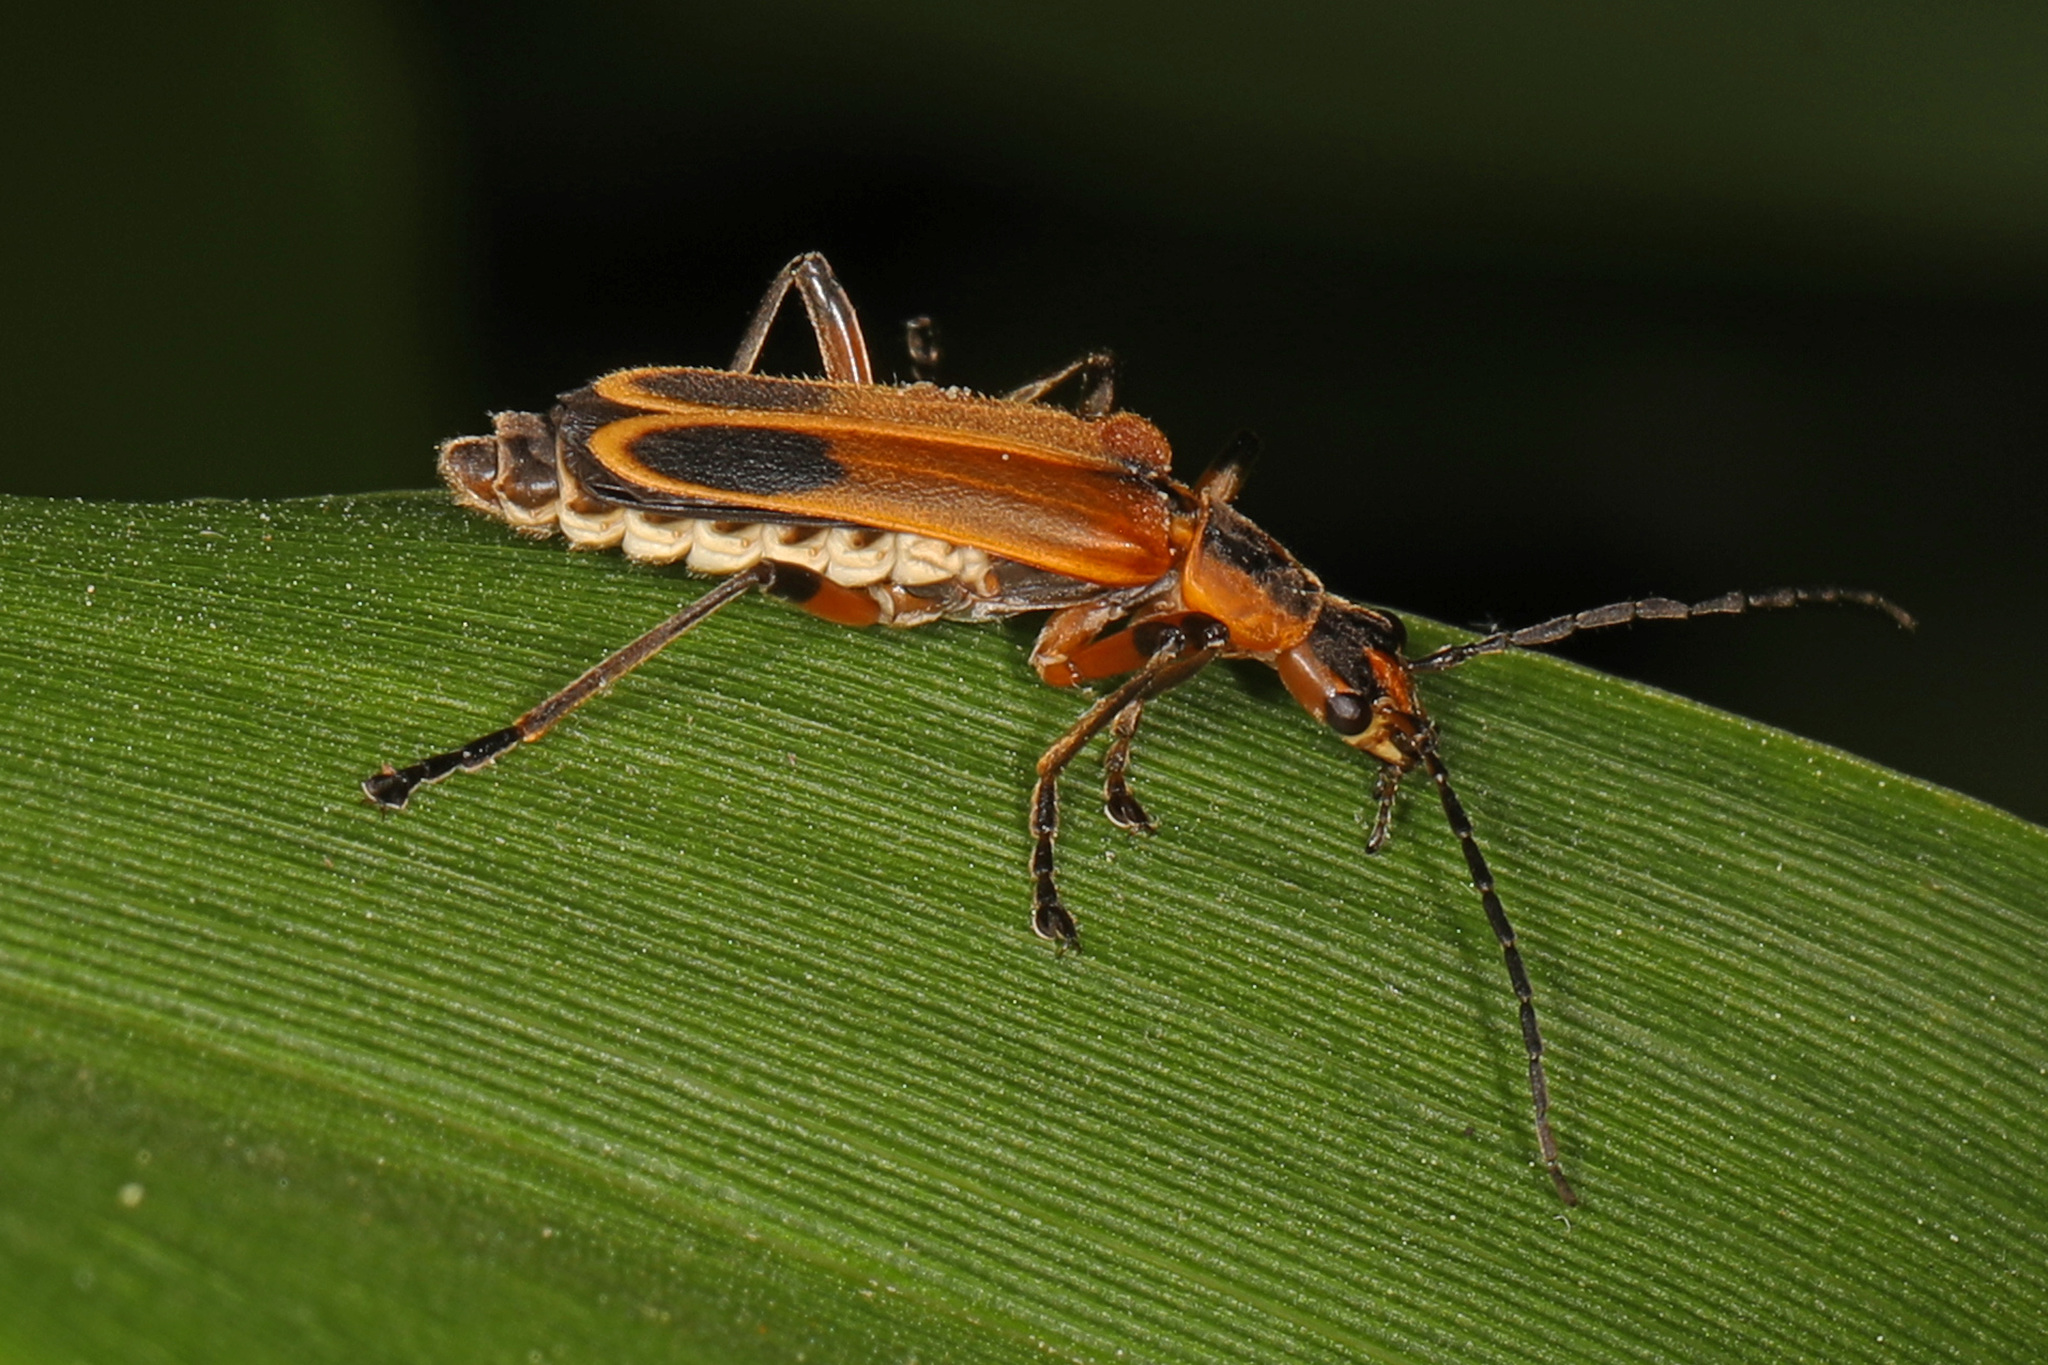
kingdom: Animalia
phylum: Arthropoda
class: Insecta
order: Coleoptera
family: Cantharidae
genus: Chauliognathus
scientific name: Chauliognathus marginatus
